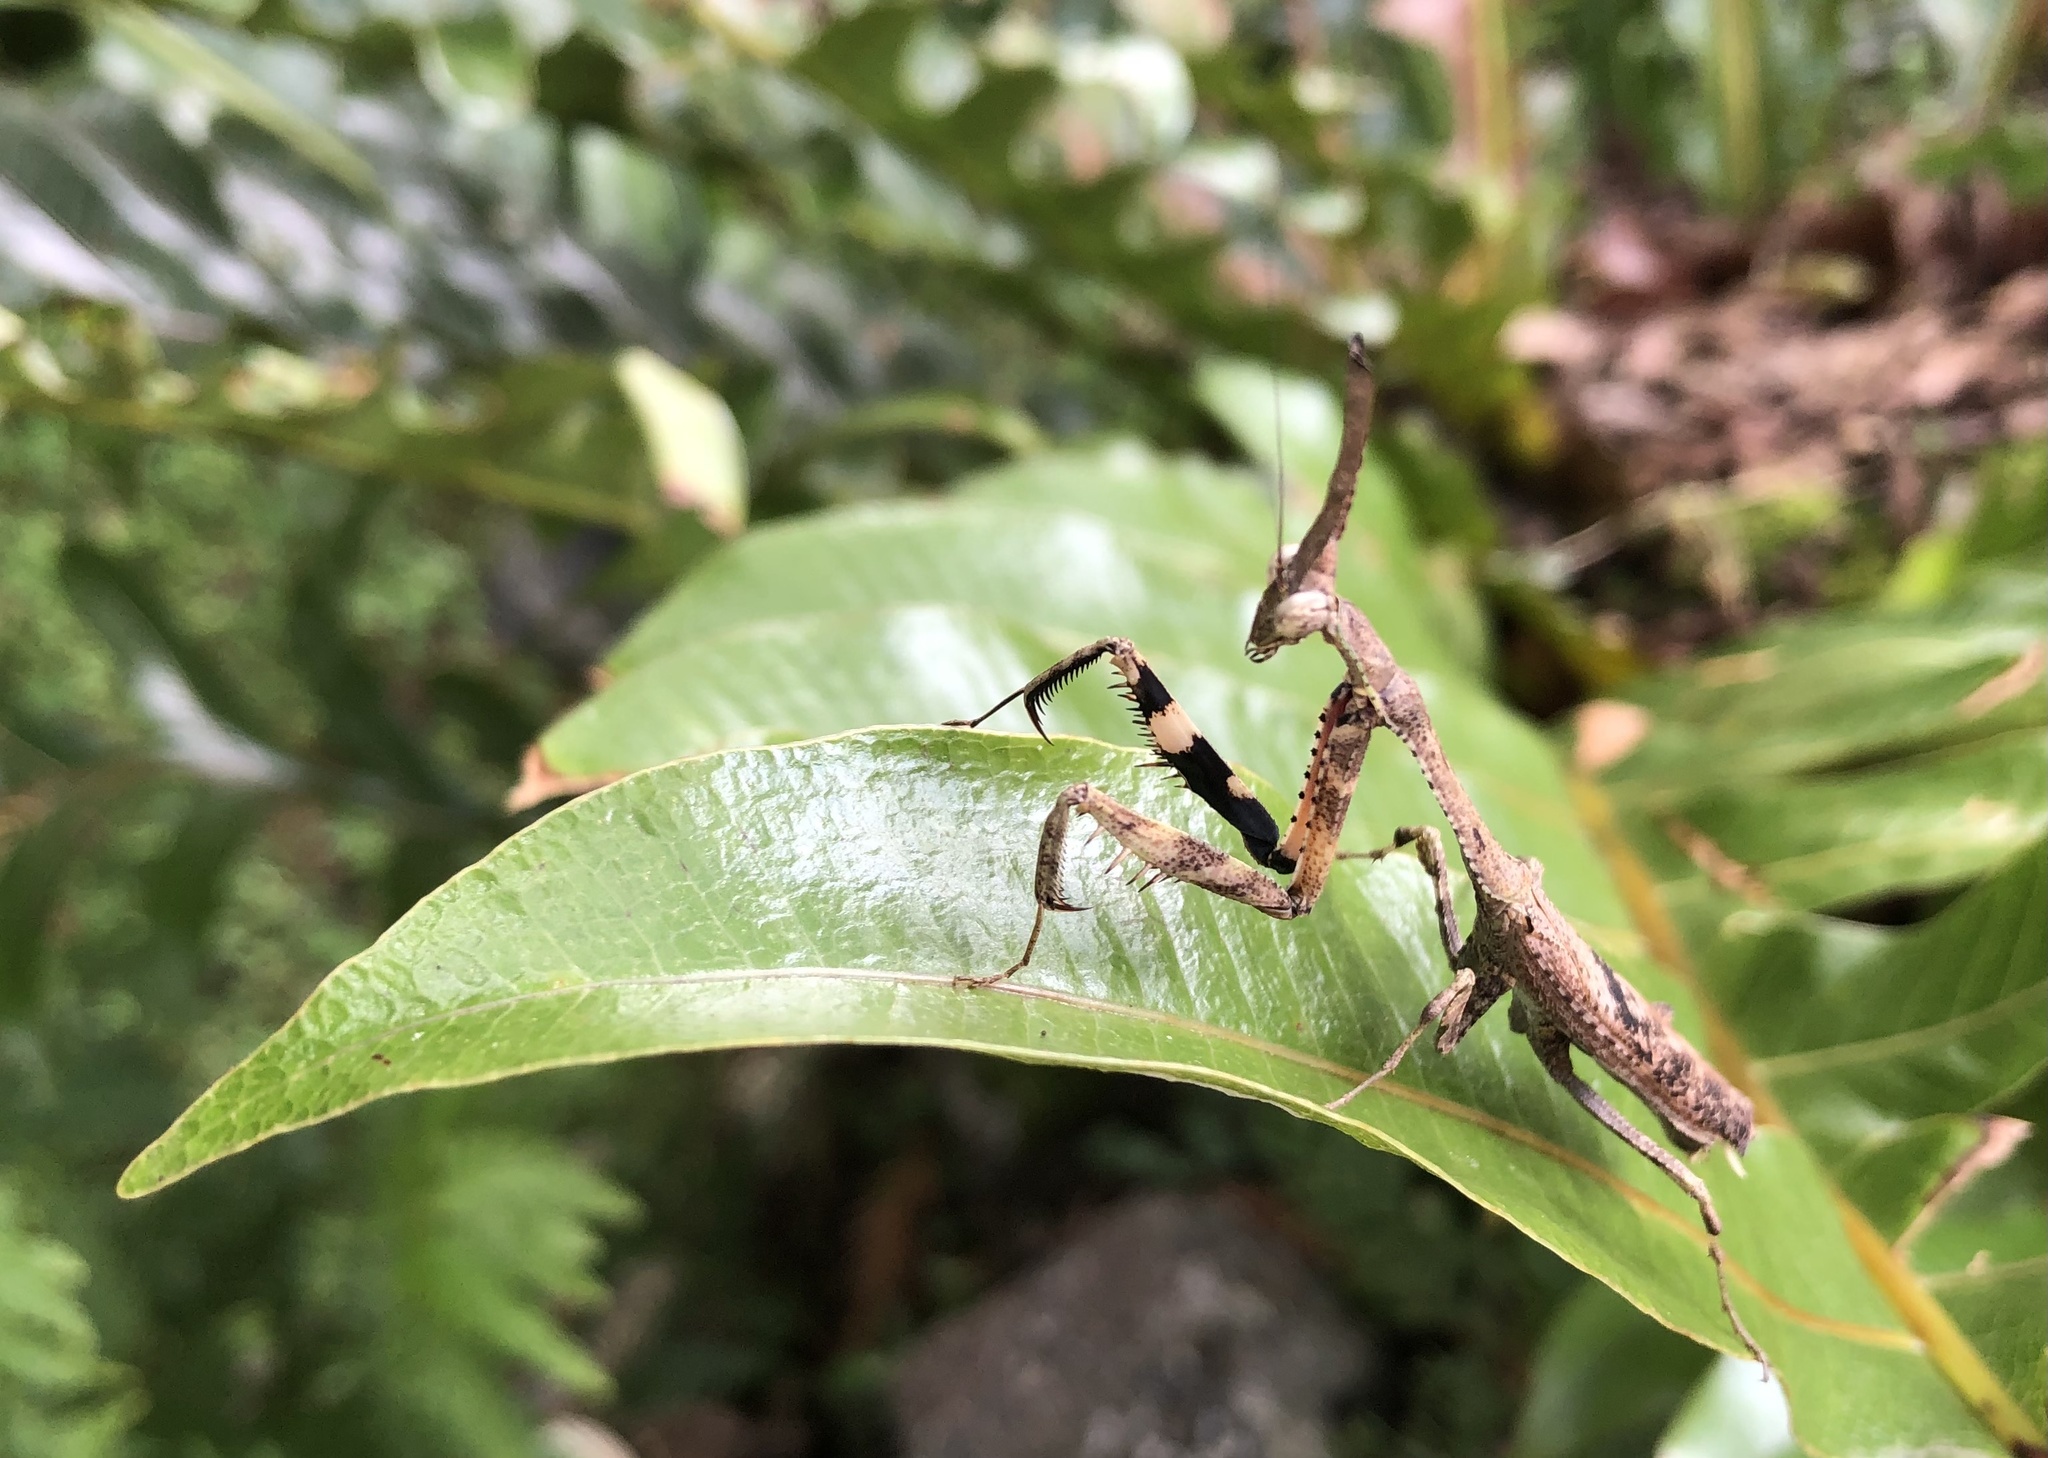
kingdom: Animalia
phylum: Arthropoda
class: Insecta
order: Mantodea
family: Hymenopodidae
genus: Phyllothelys
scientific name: Phyllothelys werneri
